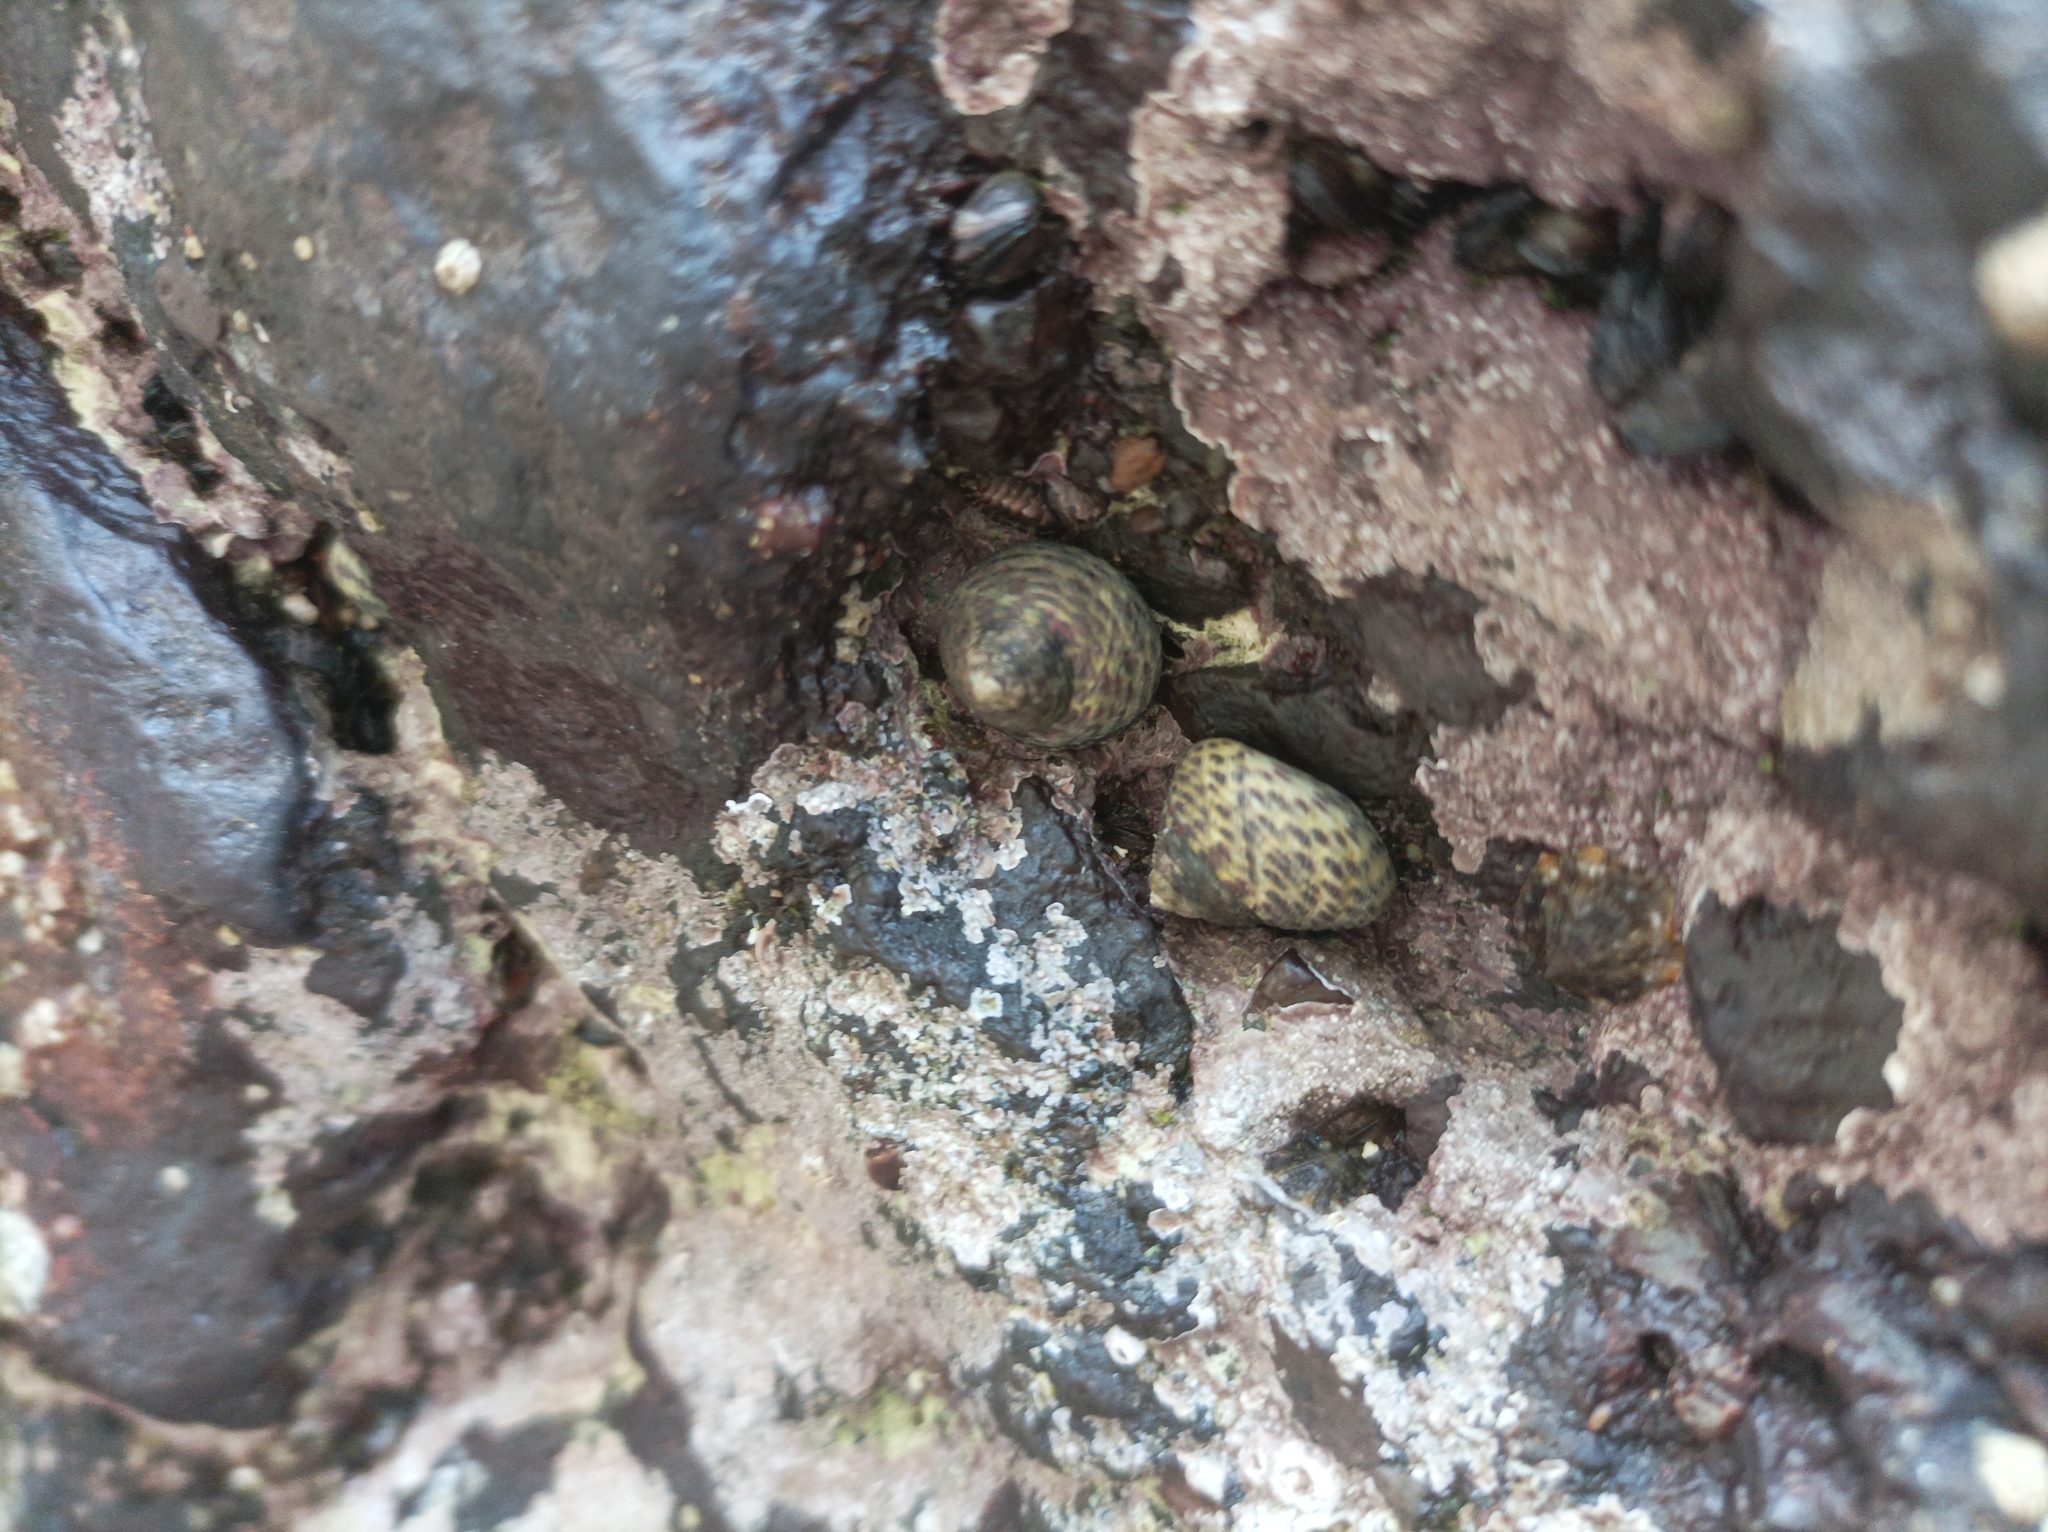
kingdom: Animalia
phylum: Mollusca
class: Gastropoda
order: Trochida
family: Trochidae
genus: Phorcus
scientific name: Phorcus turbinatus
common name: Turbinate monodont
